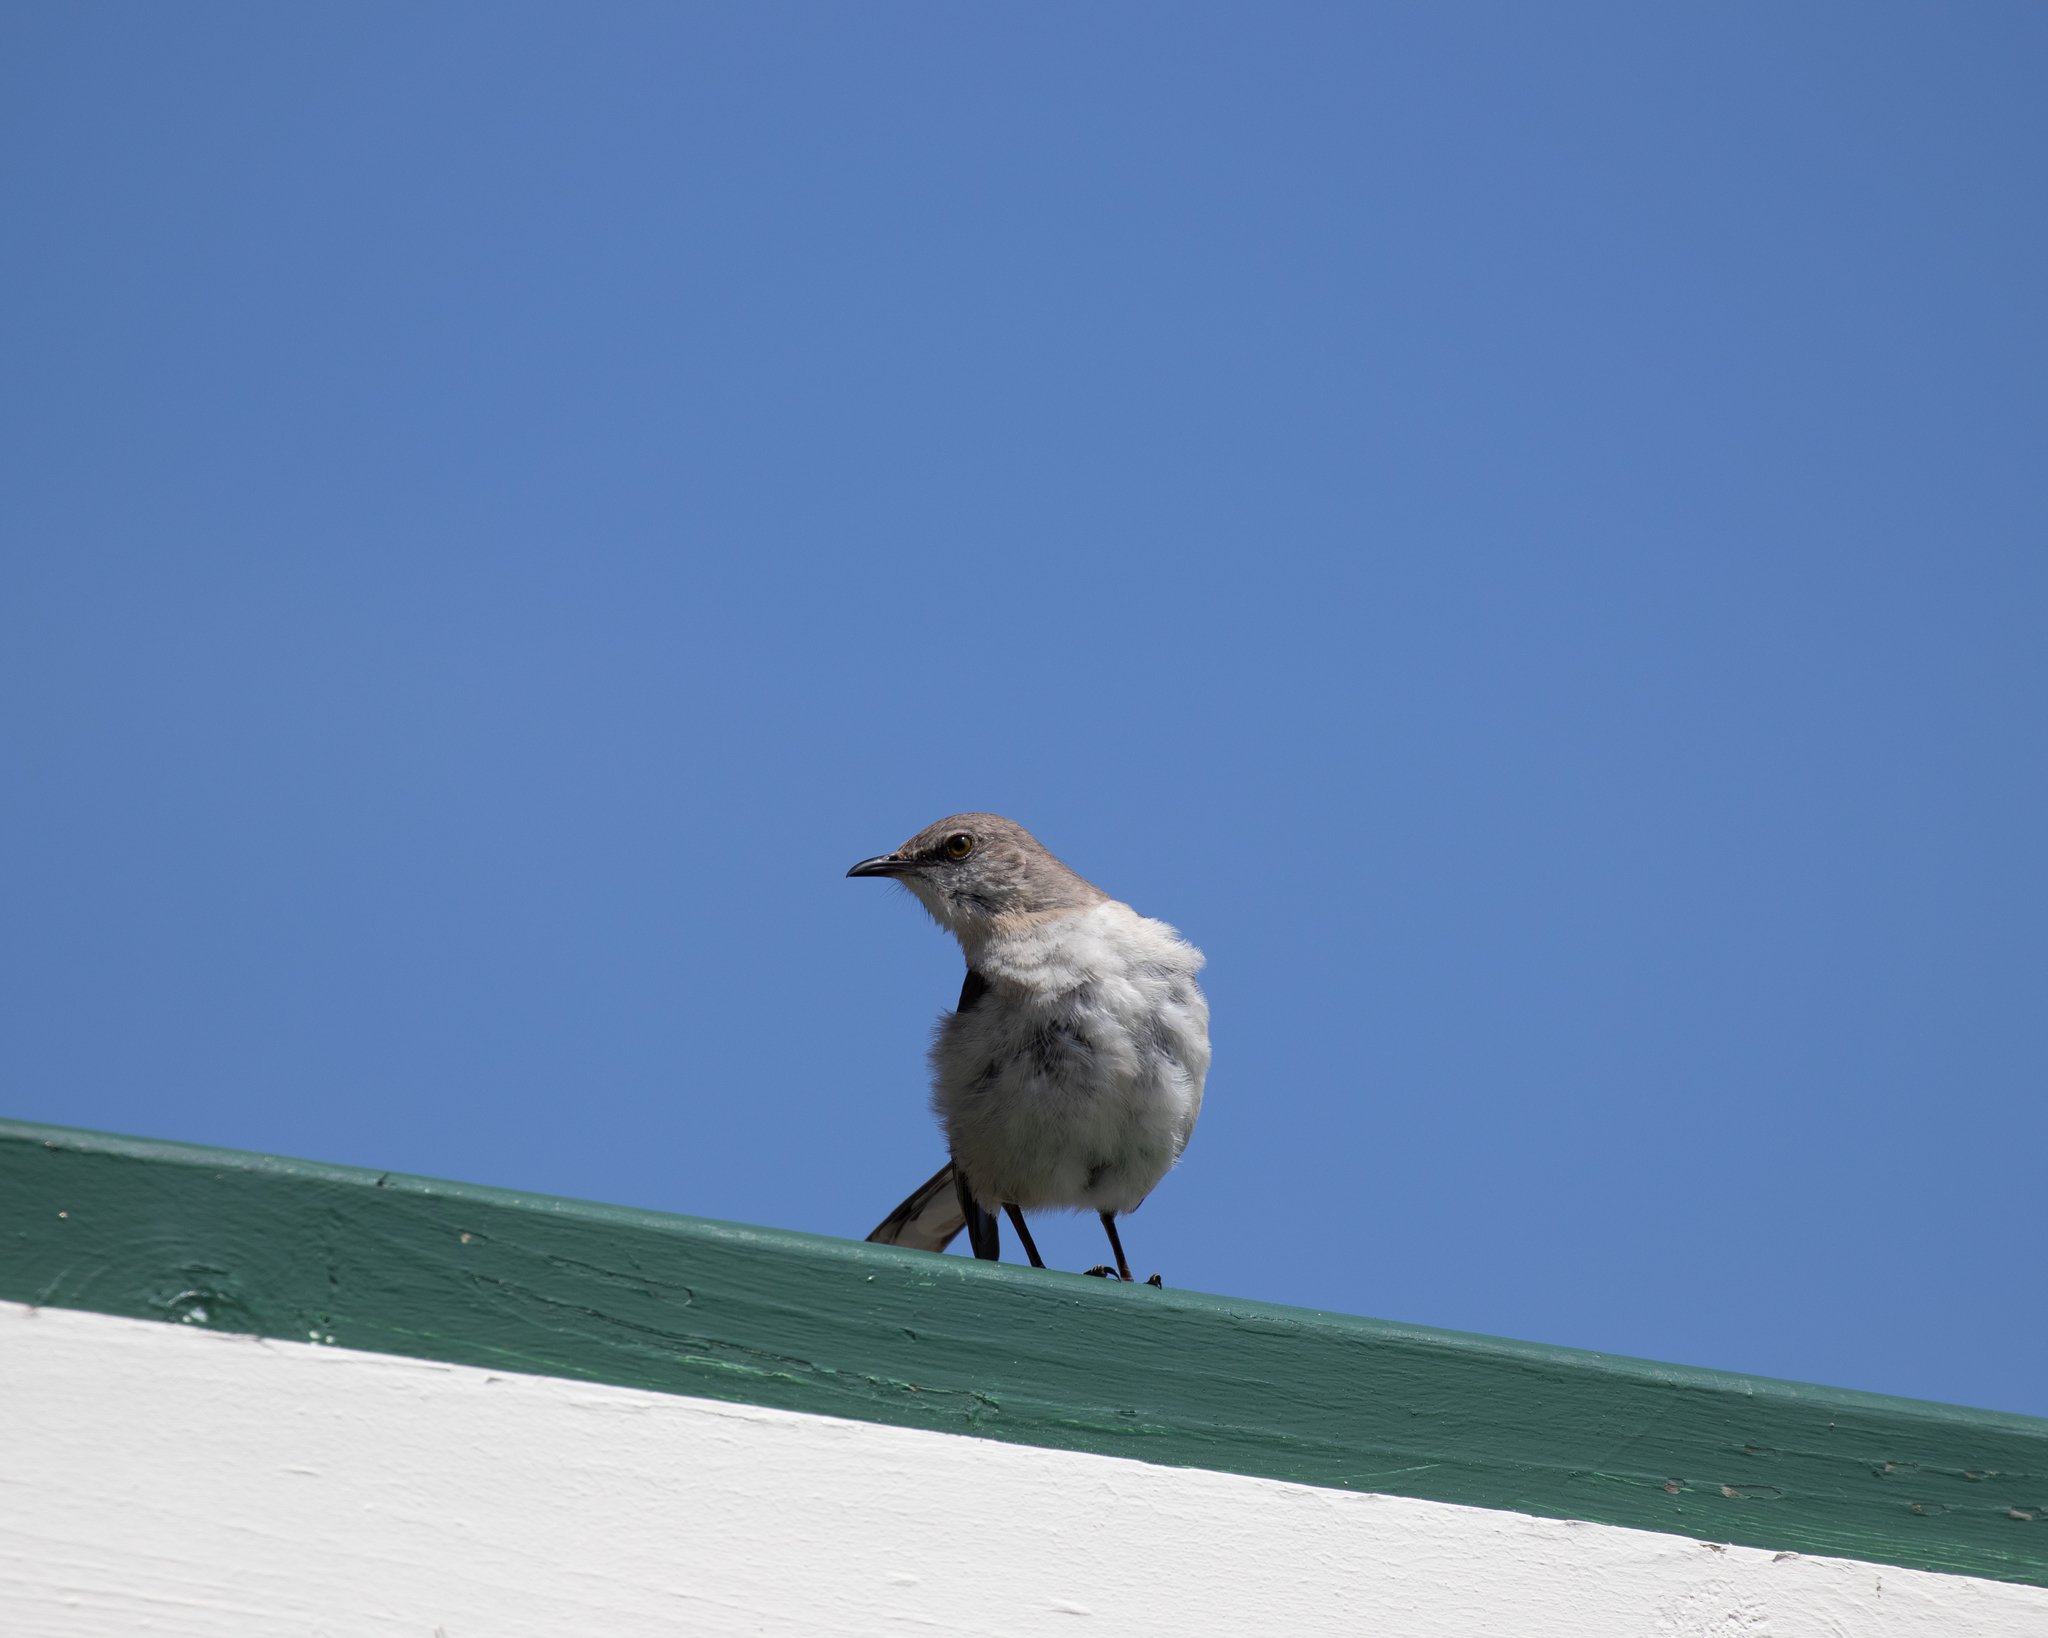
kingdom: Animalia
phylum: Chordata
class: Aves
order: Passeriformes
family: Mimidae
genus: Mimus
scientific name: Mimus polyglottos
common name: Northern mockingbird
